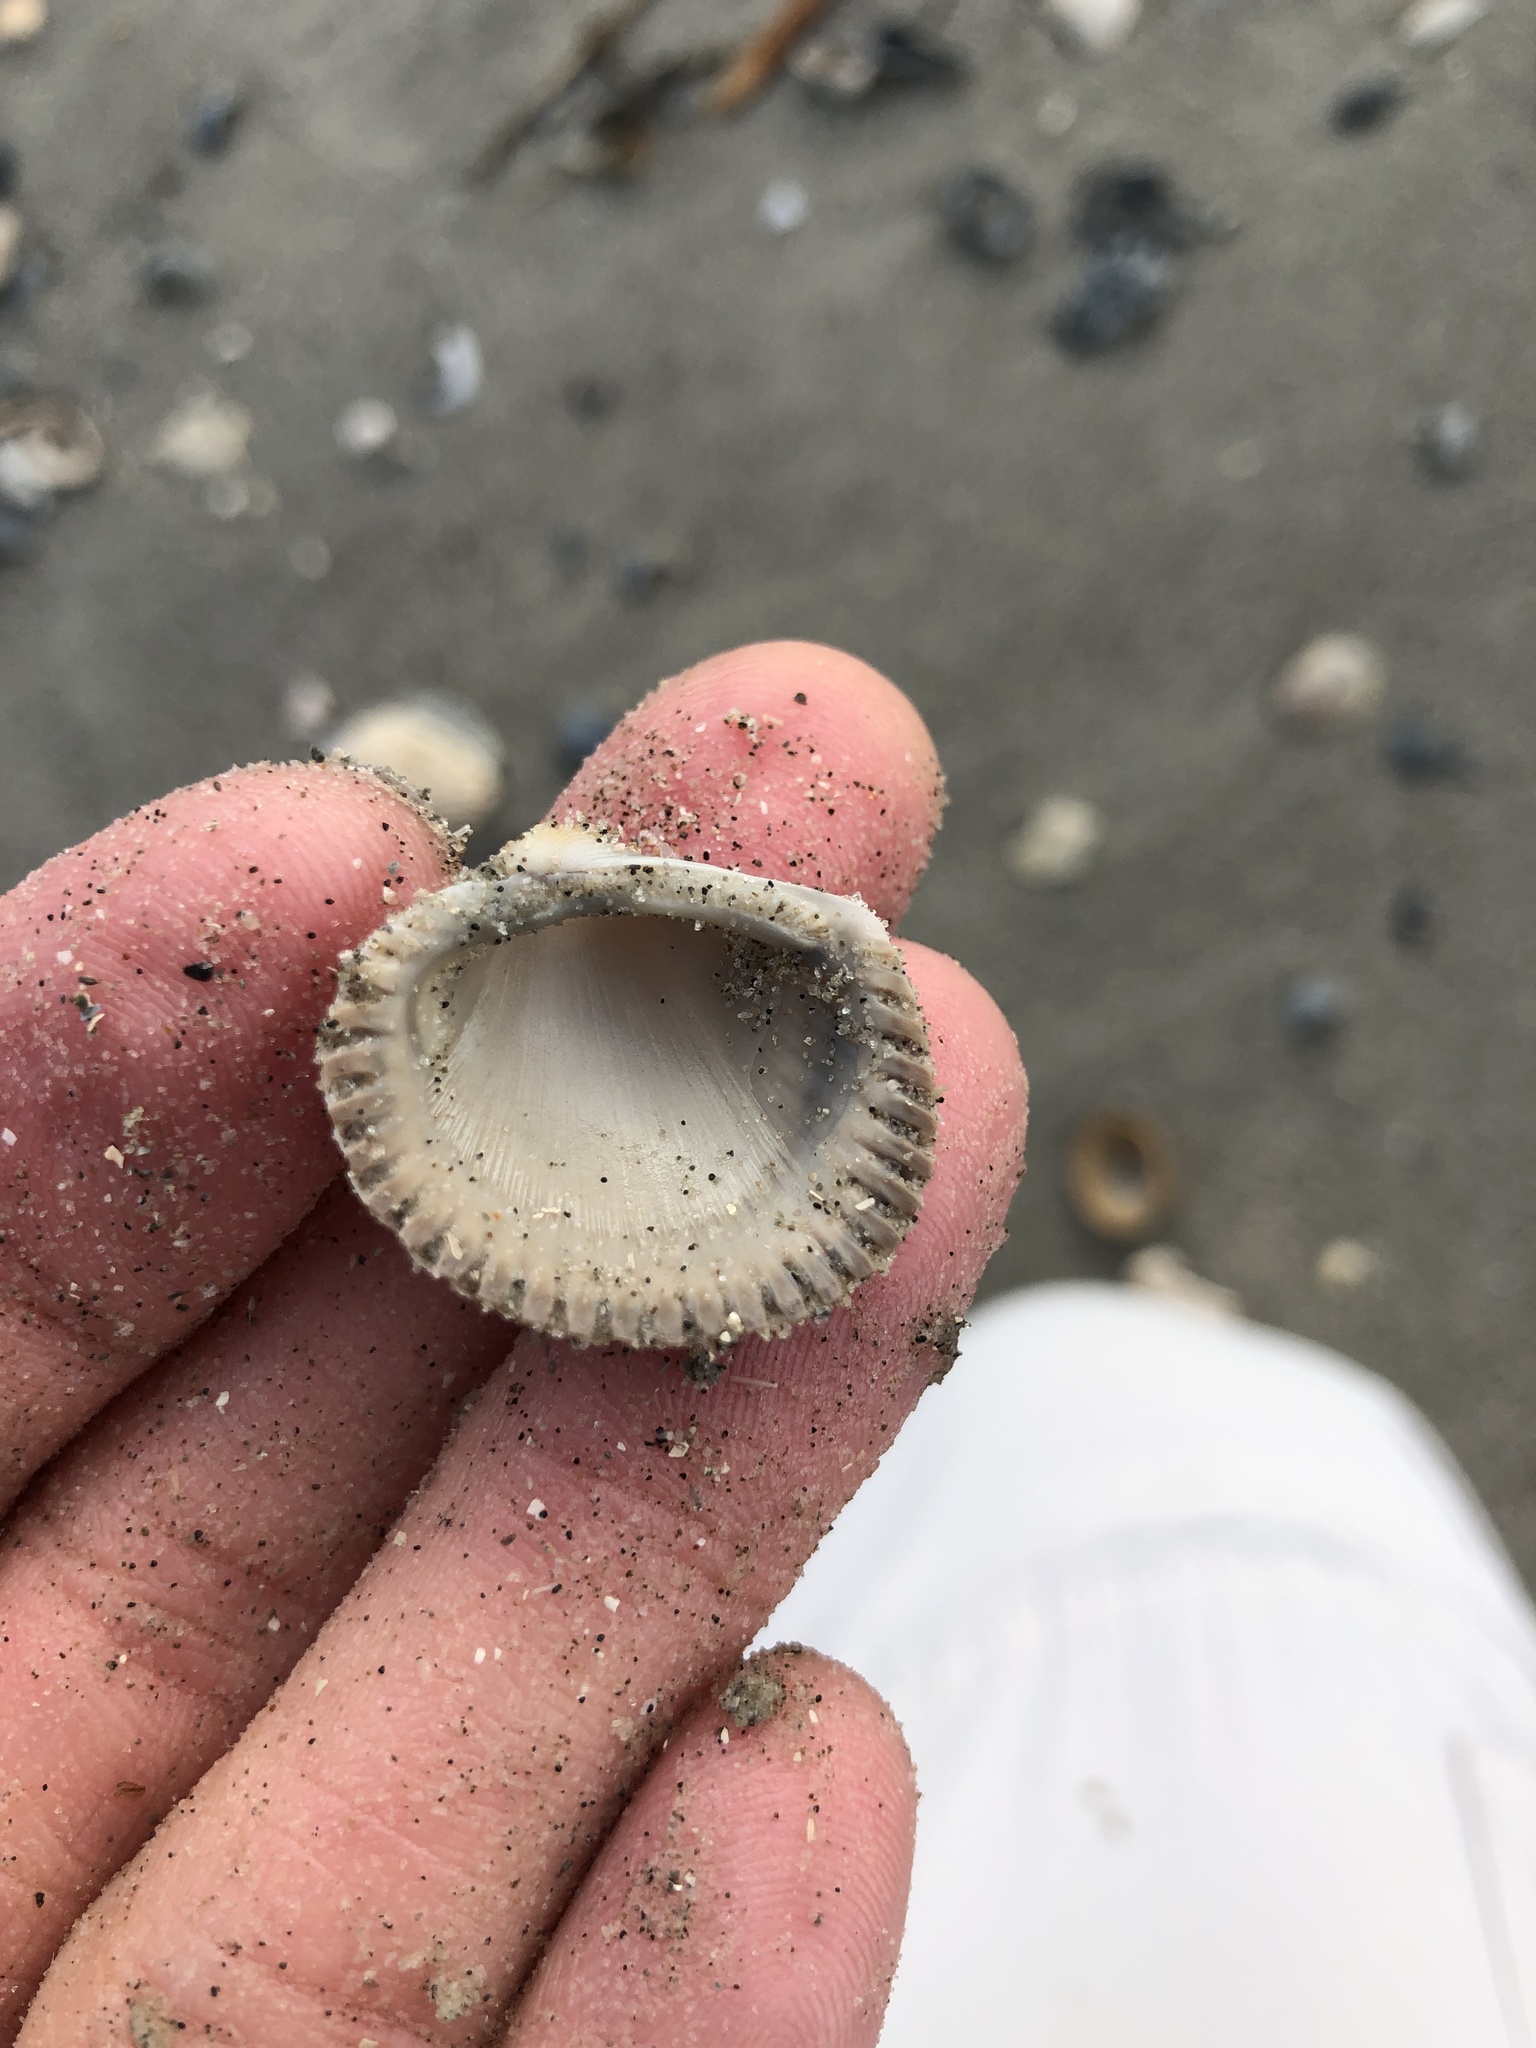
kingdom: Animalia
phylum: Mollusca
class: Bivalvia
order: Arcida
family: Arcidae
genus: Lunarca
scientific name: Lunarca ovalis
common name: Blood ark
